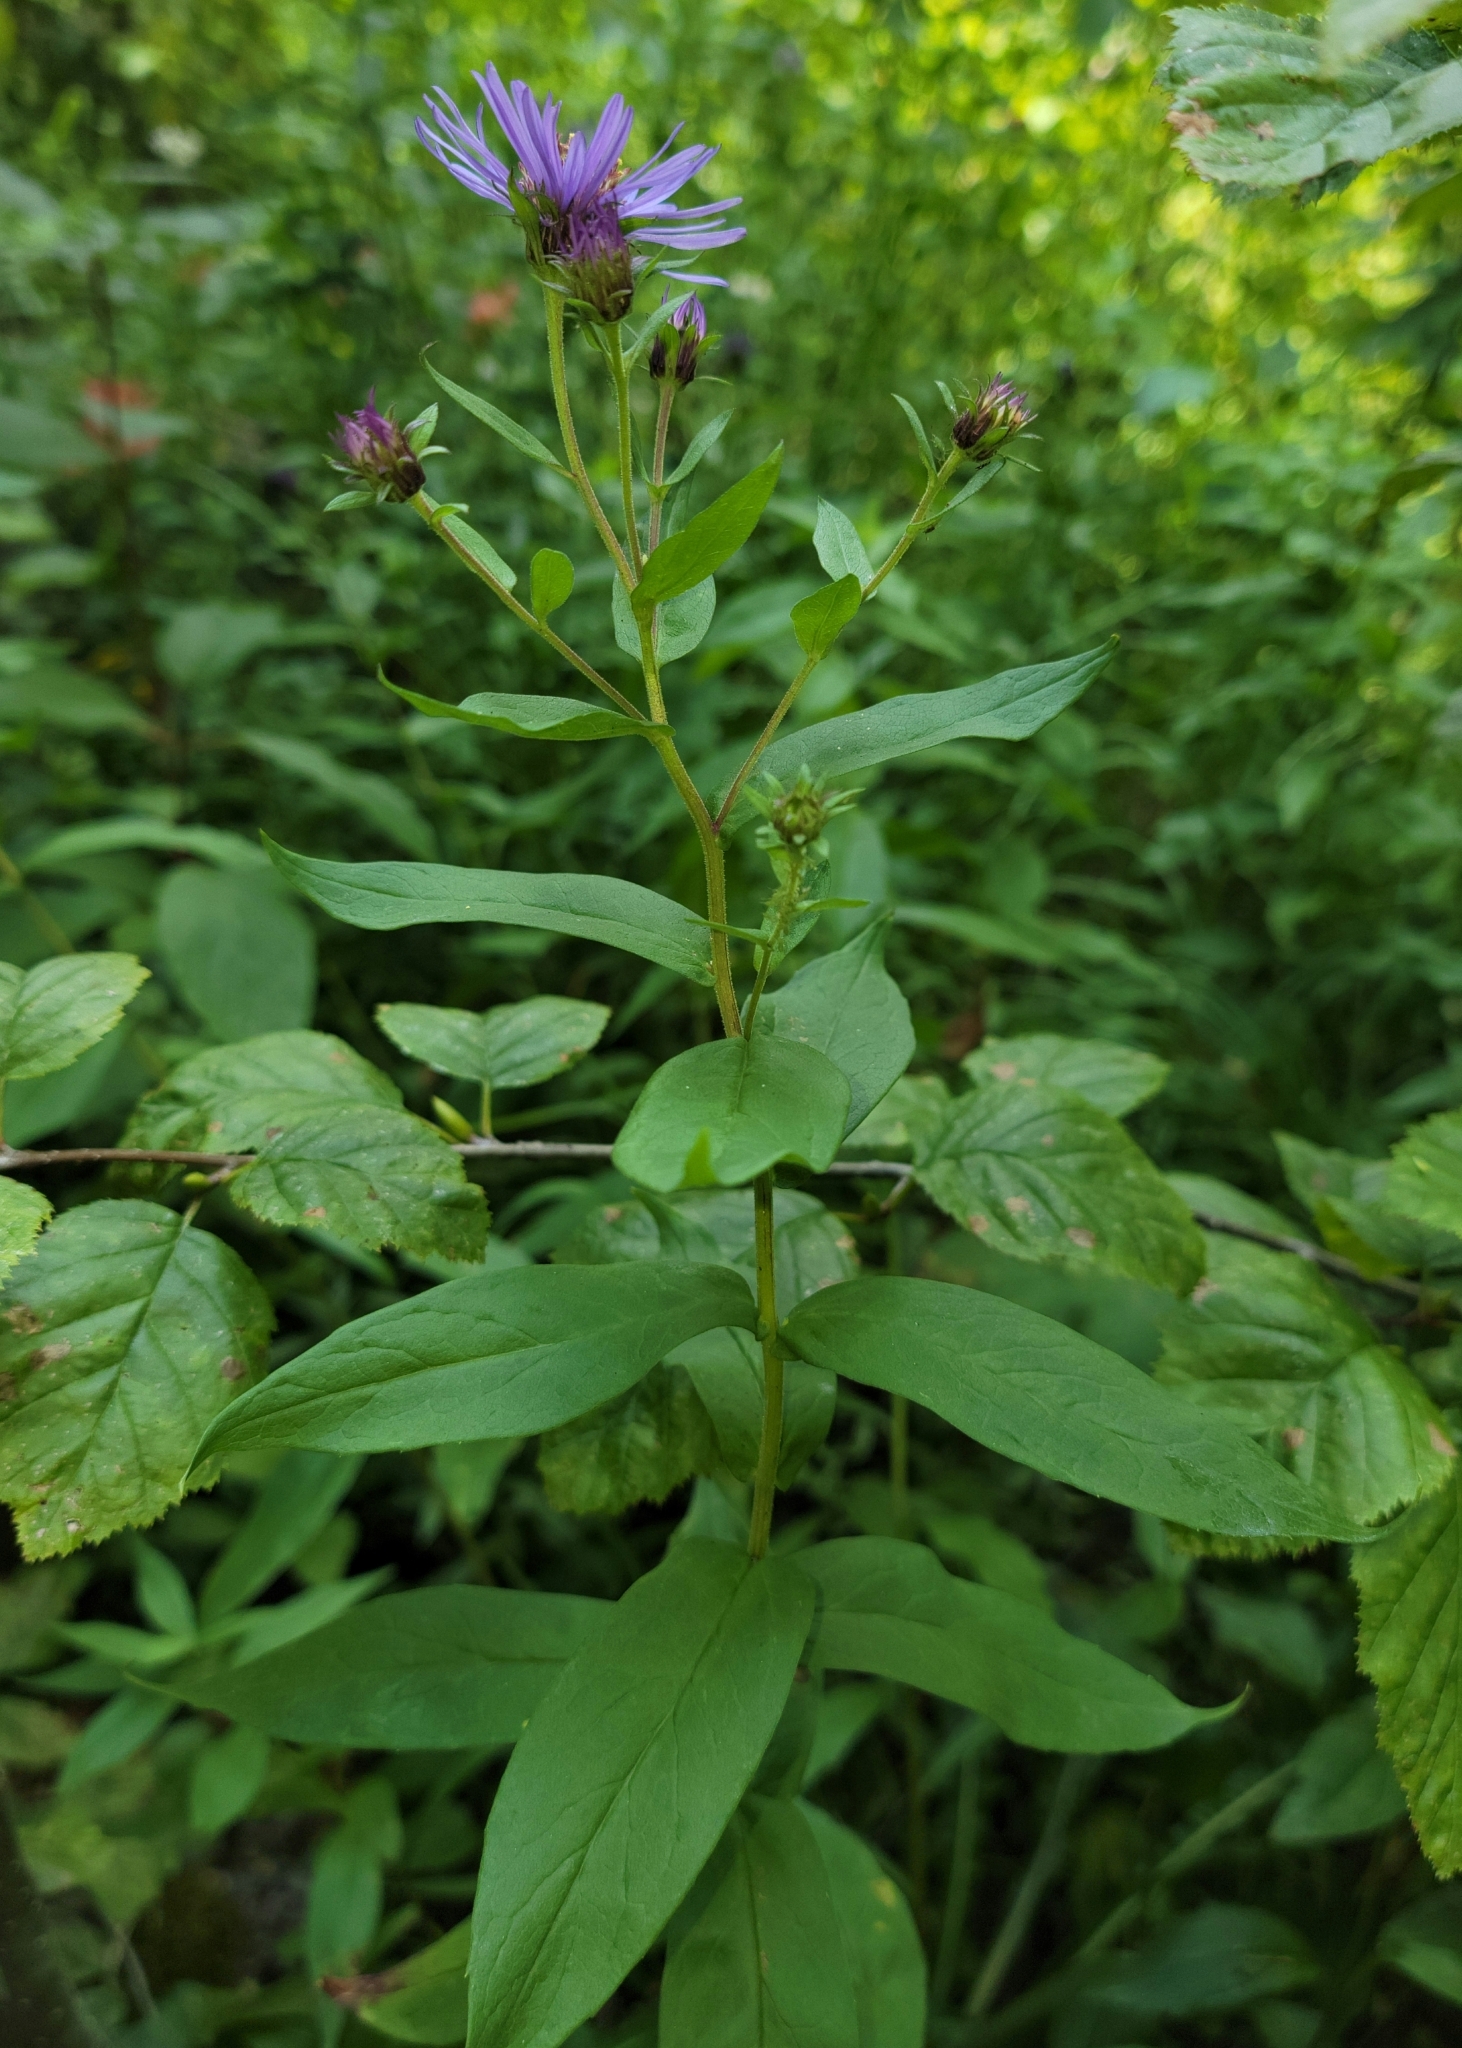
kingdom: Plantae
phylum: Tracheophyta
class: Magnoliopsida
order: Asterales
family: Asteraceae
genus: Eurybia
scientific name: Eurybia conspicua
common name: Showy aster
